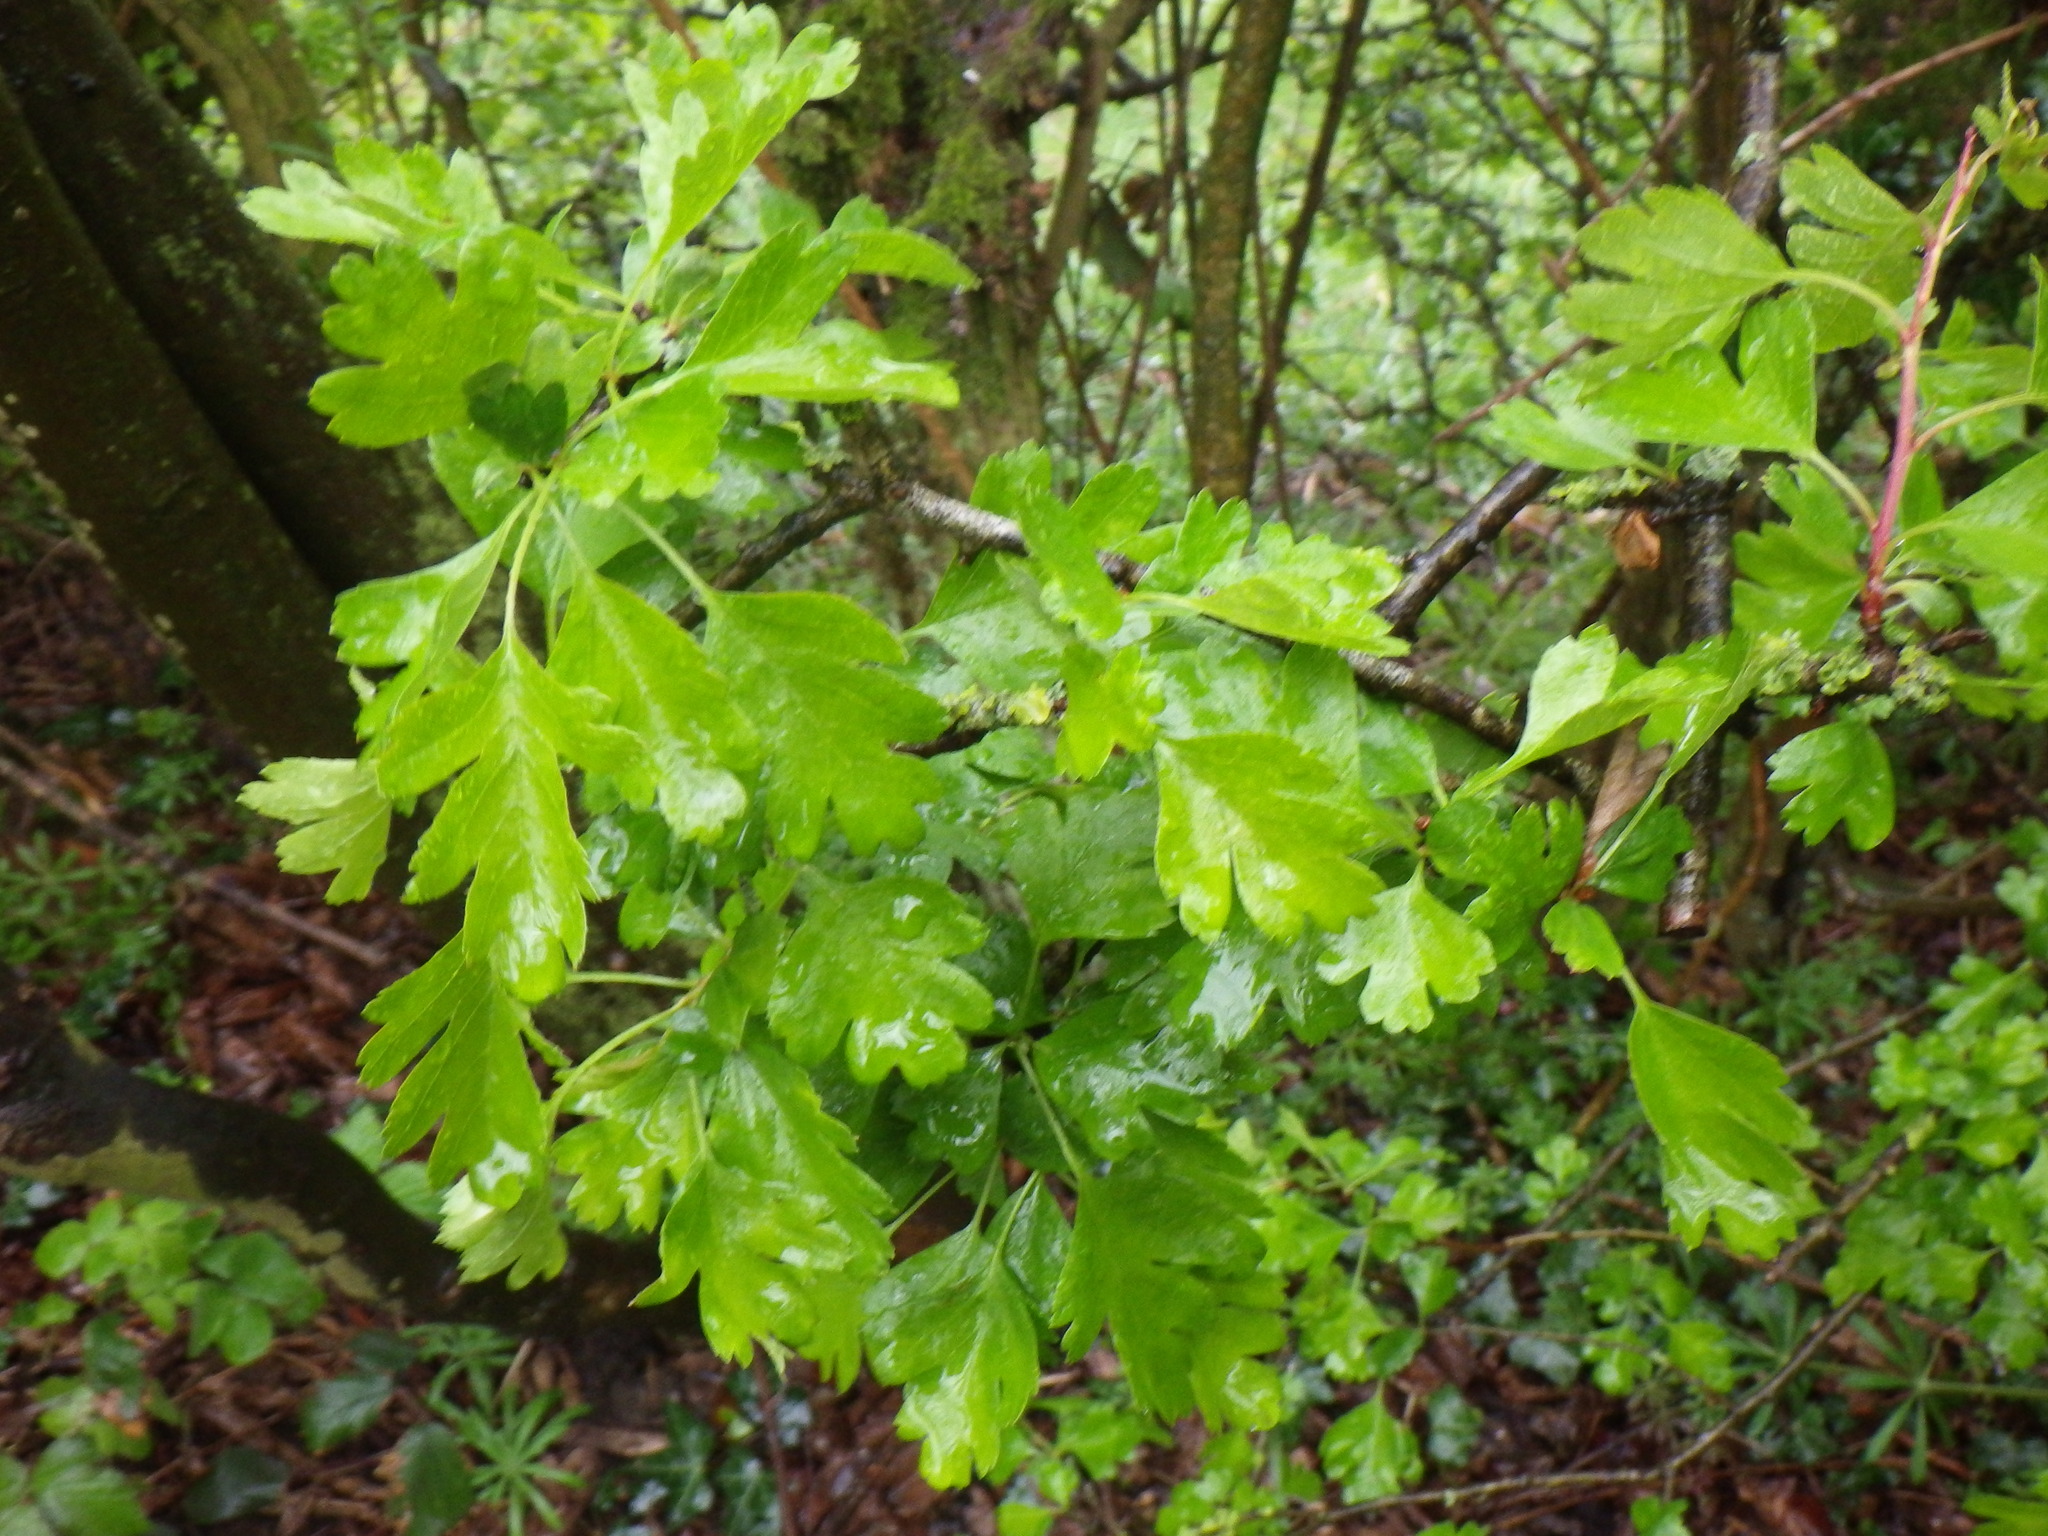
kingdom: Plantae
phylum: Tracheophyta
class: Magnoliopsida
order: Rosales
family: Rosaceae
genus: Crataegus
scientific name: Crataegus monogyna
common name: Hawthorn
